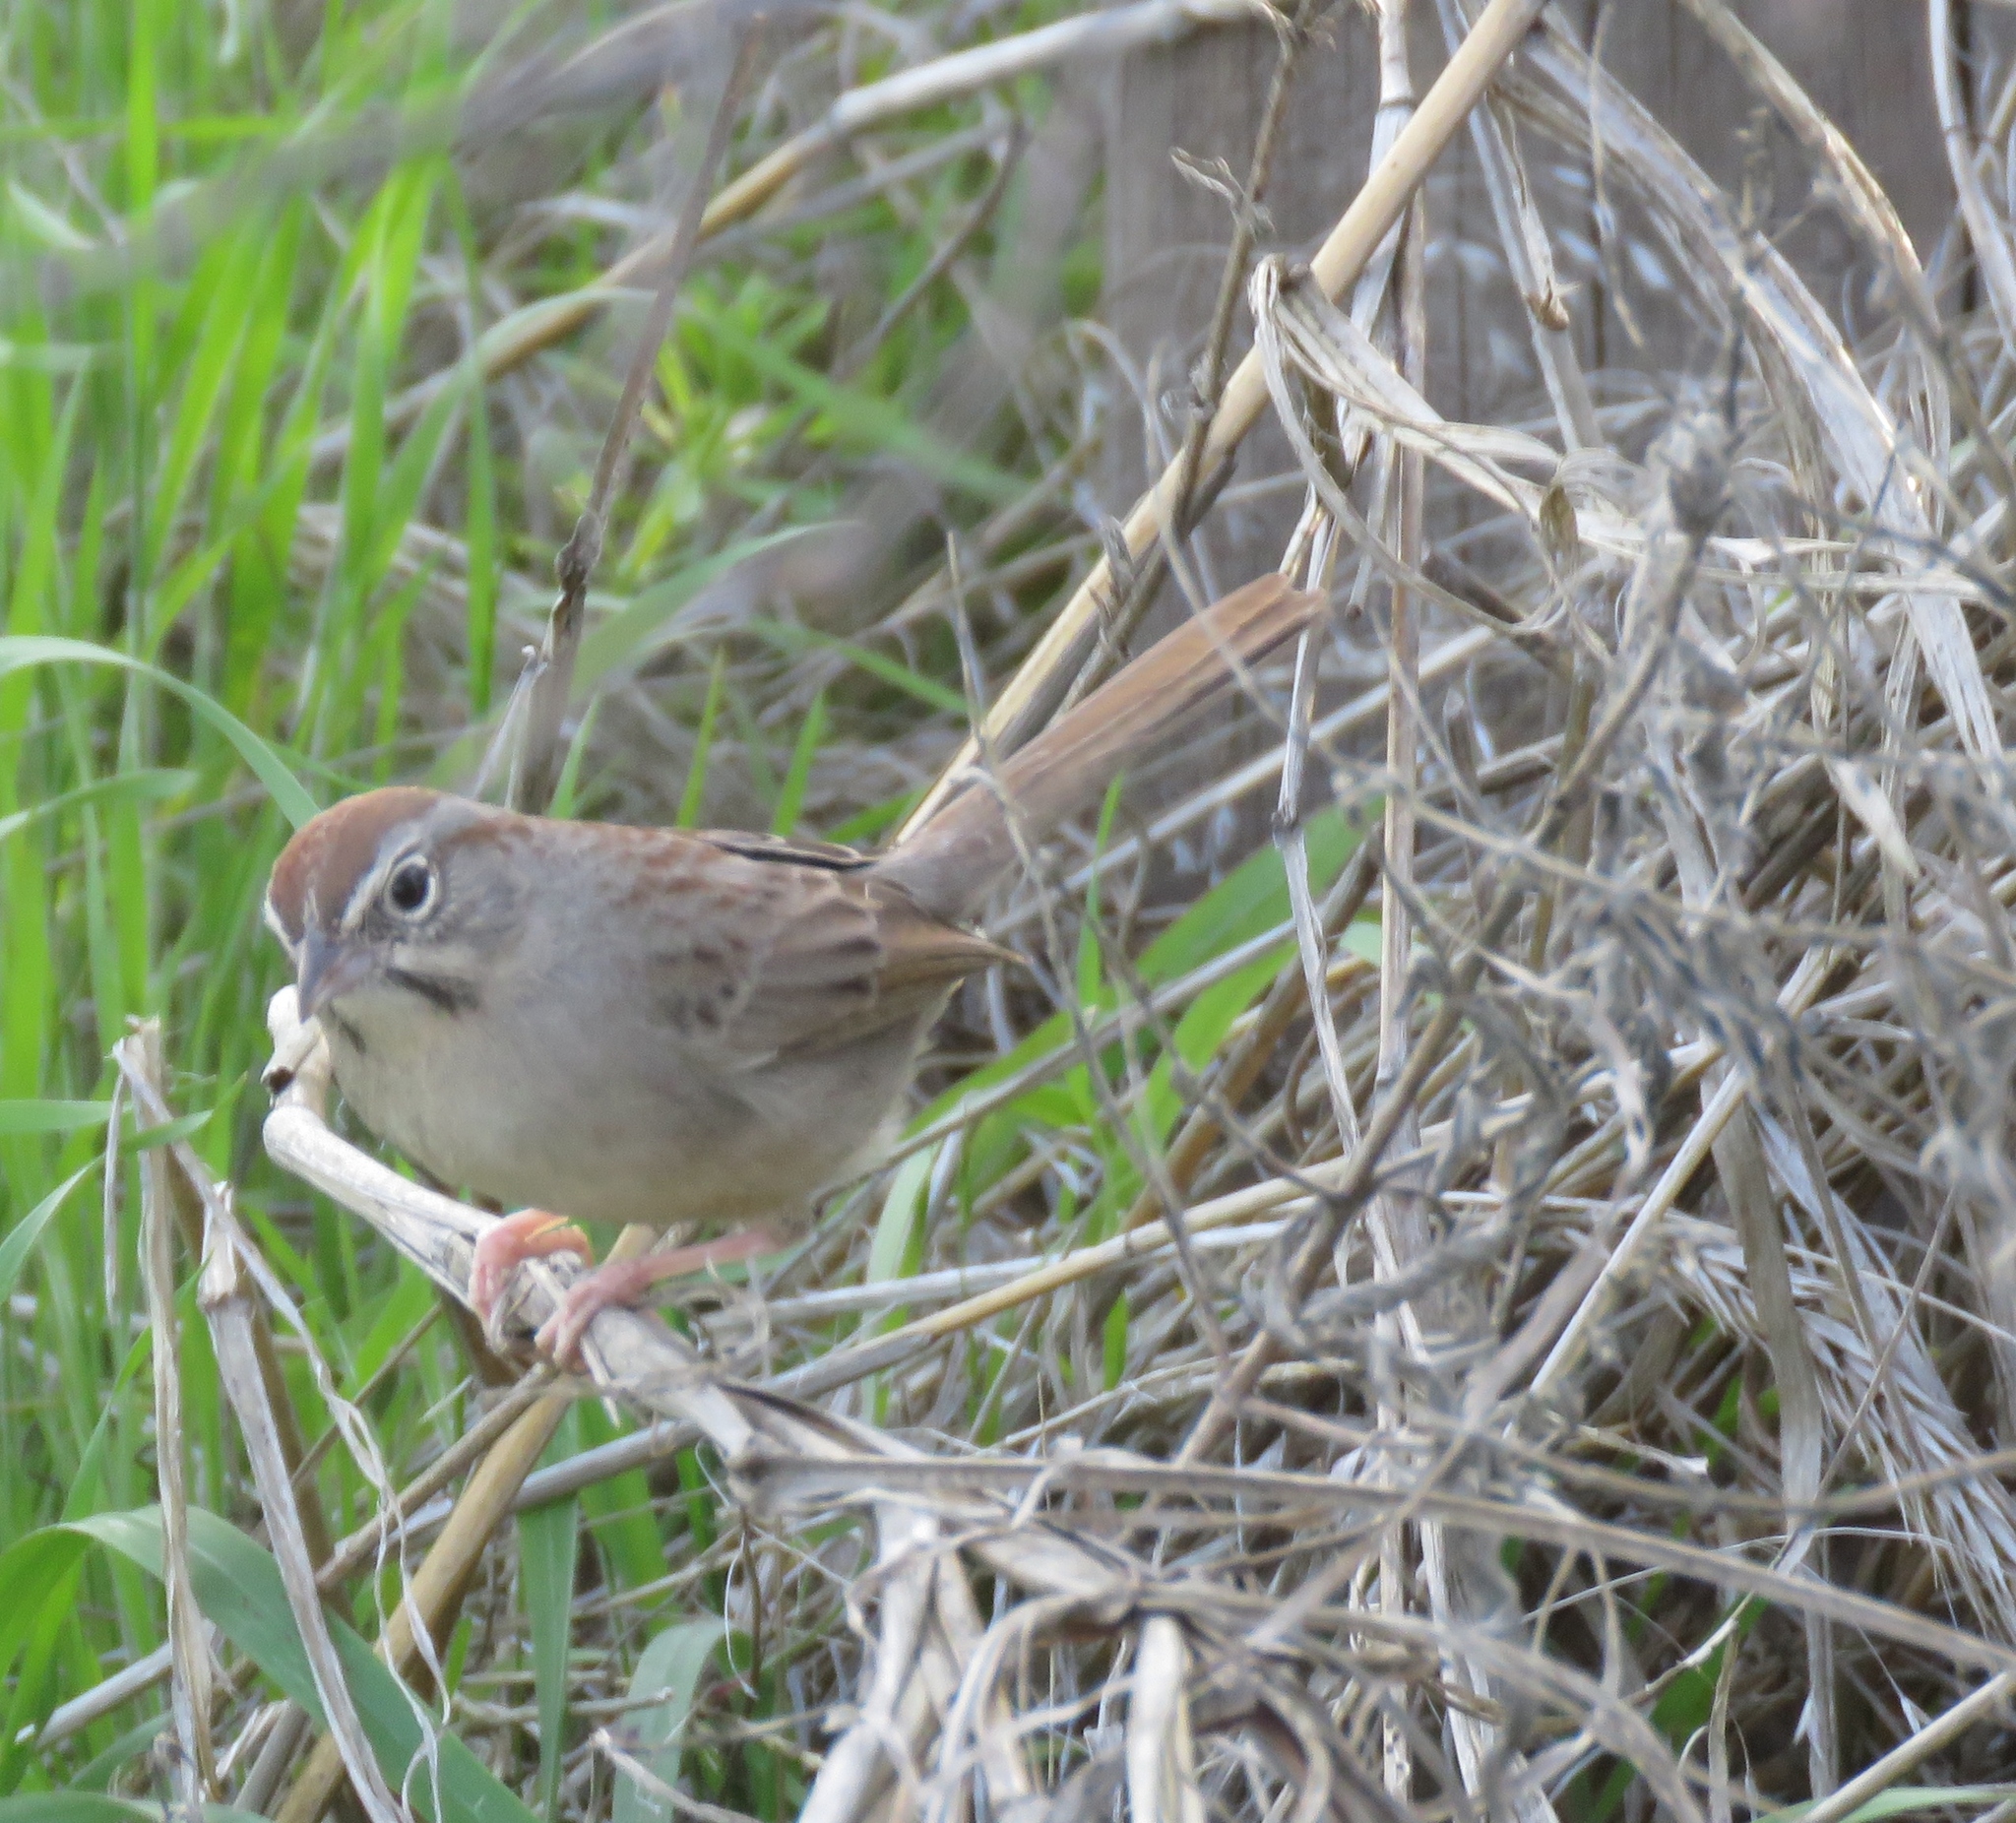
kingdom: Animalia
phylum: Chordata
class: Aves
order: Passeriformes
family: Passerellidae
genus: Aimophila
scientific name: Aimophila ruficeps
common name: Rufous-crowned sparrow
